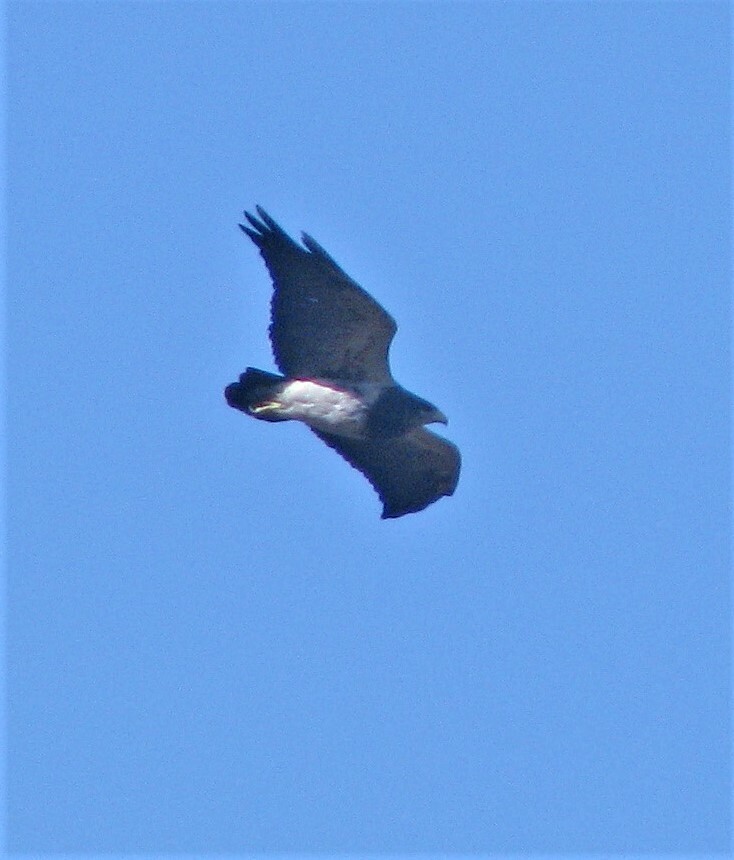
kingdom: Animalia
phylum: Chordata
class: Aves
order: Accipitriformes
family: Accipitridae
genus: Geranoaetus
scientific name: Geranoaetus melanoleucus
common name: Black-chested buzzard-eagle
